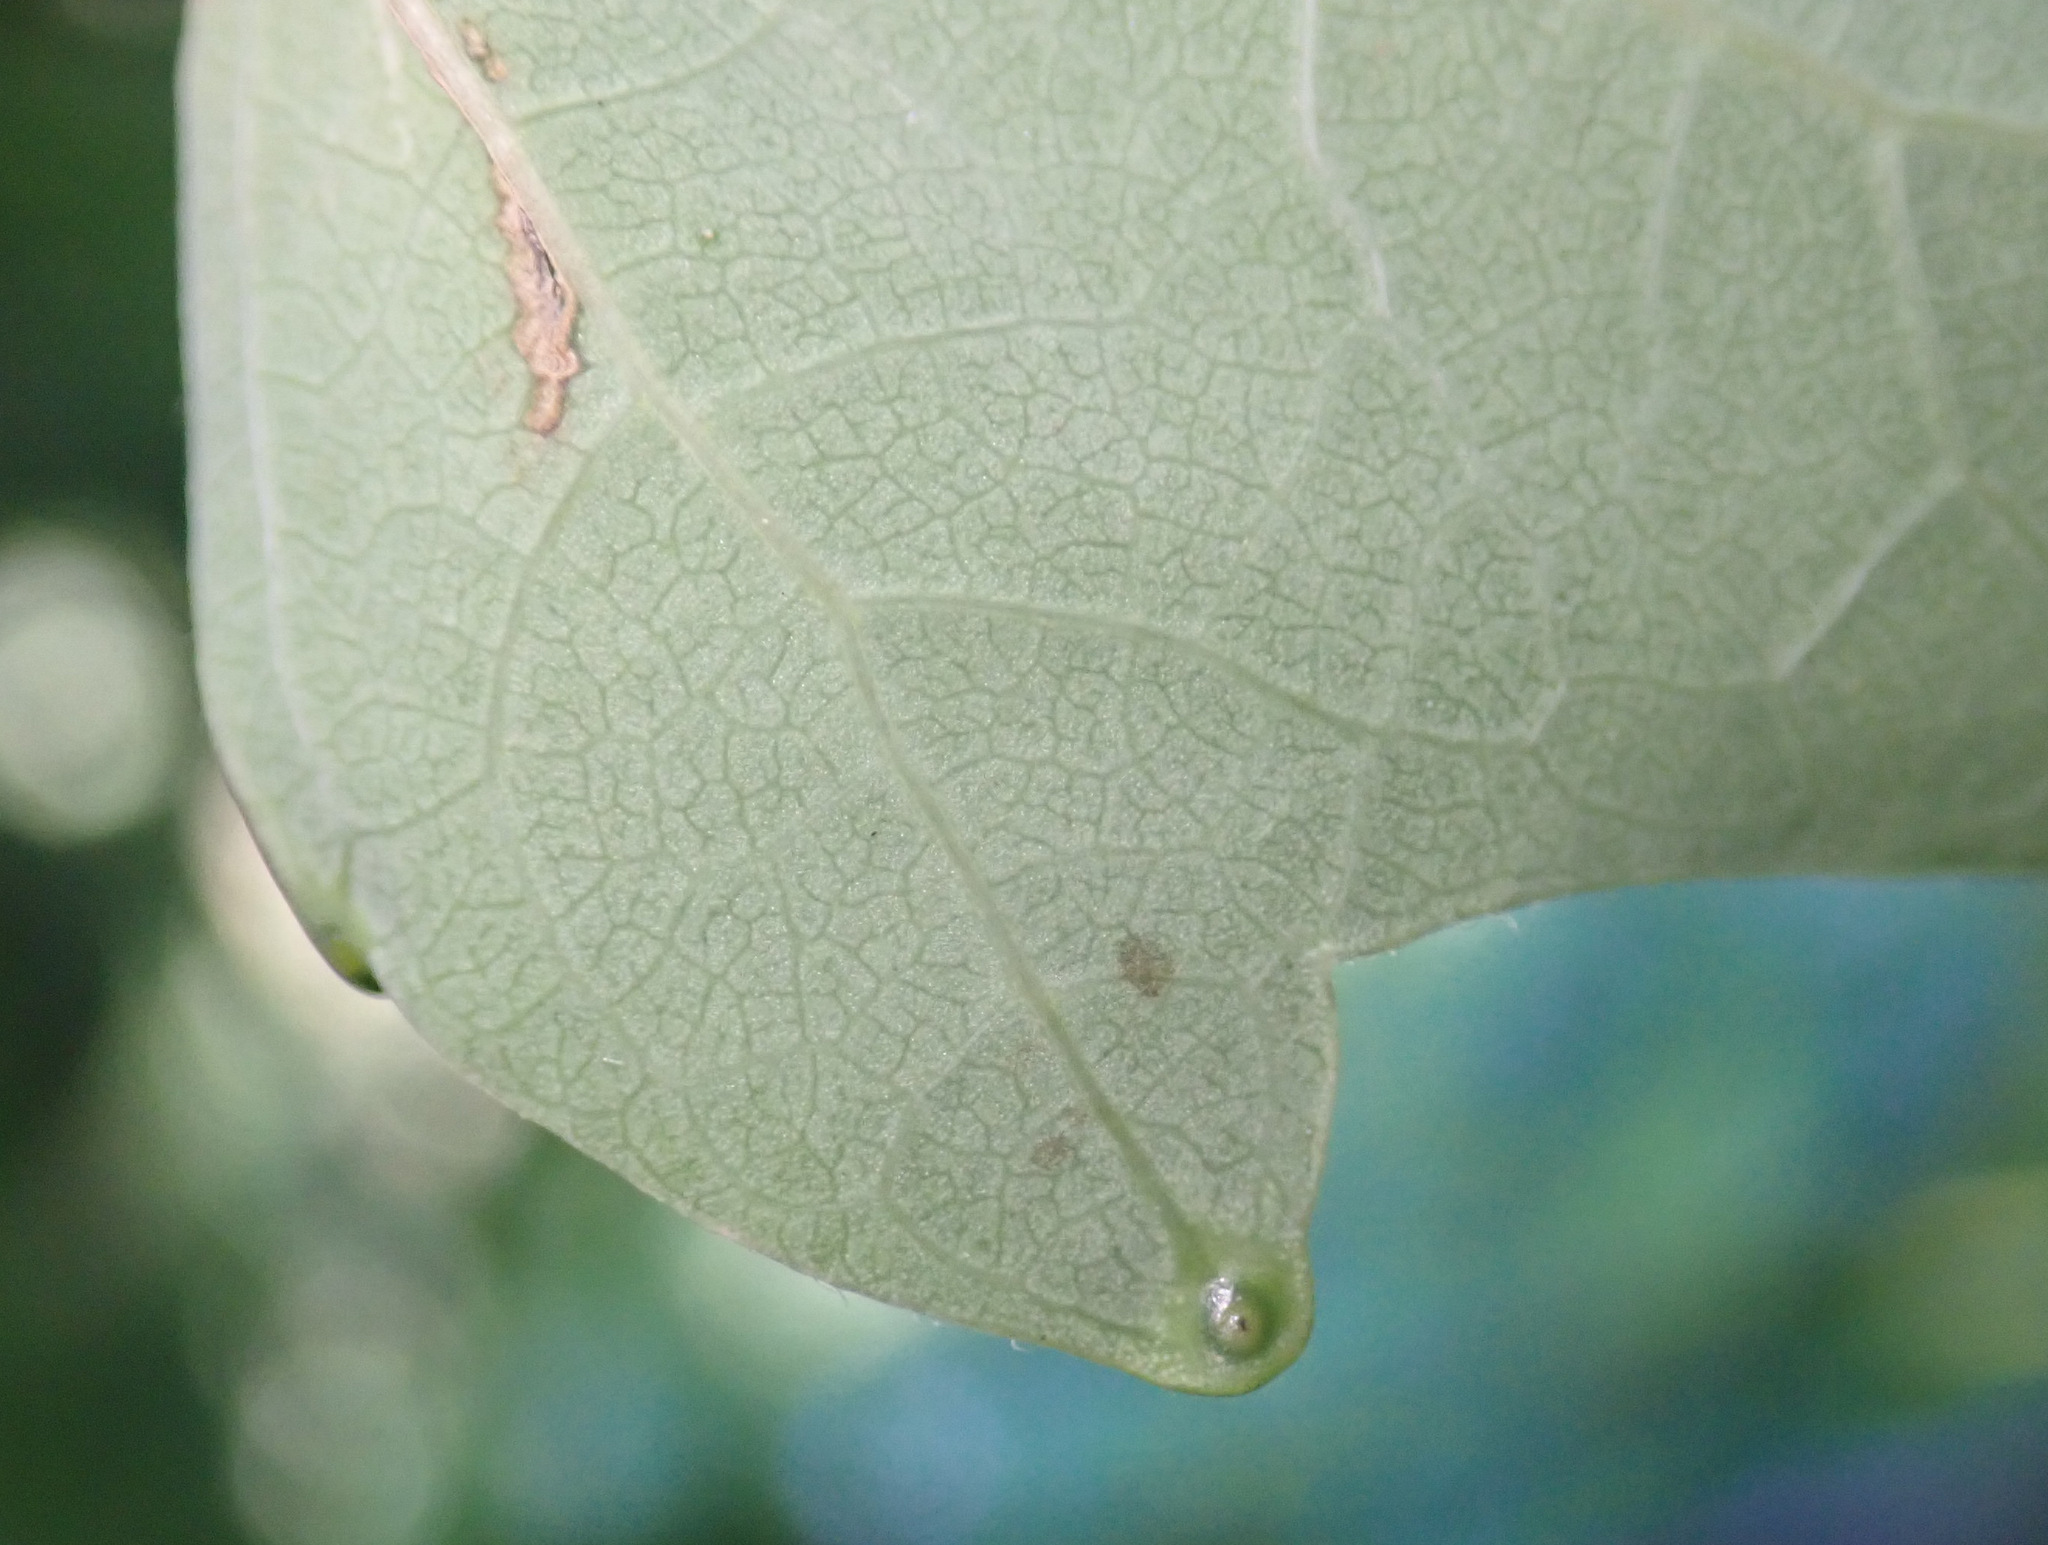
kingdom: Plantae
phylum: Tracheophyta
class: Magnoliopsida
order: Sapindales
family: Simaroubaceae
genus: Ailanthus
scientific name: Ailanthus altissima
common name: Tree-of-heaven
